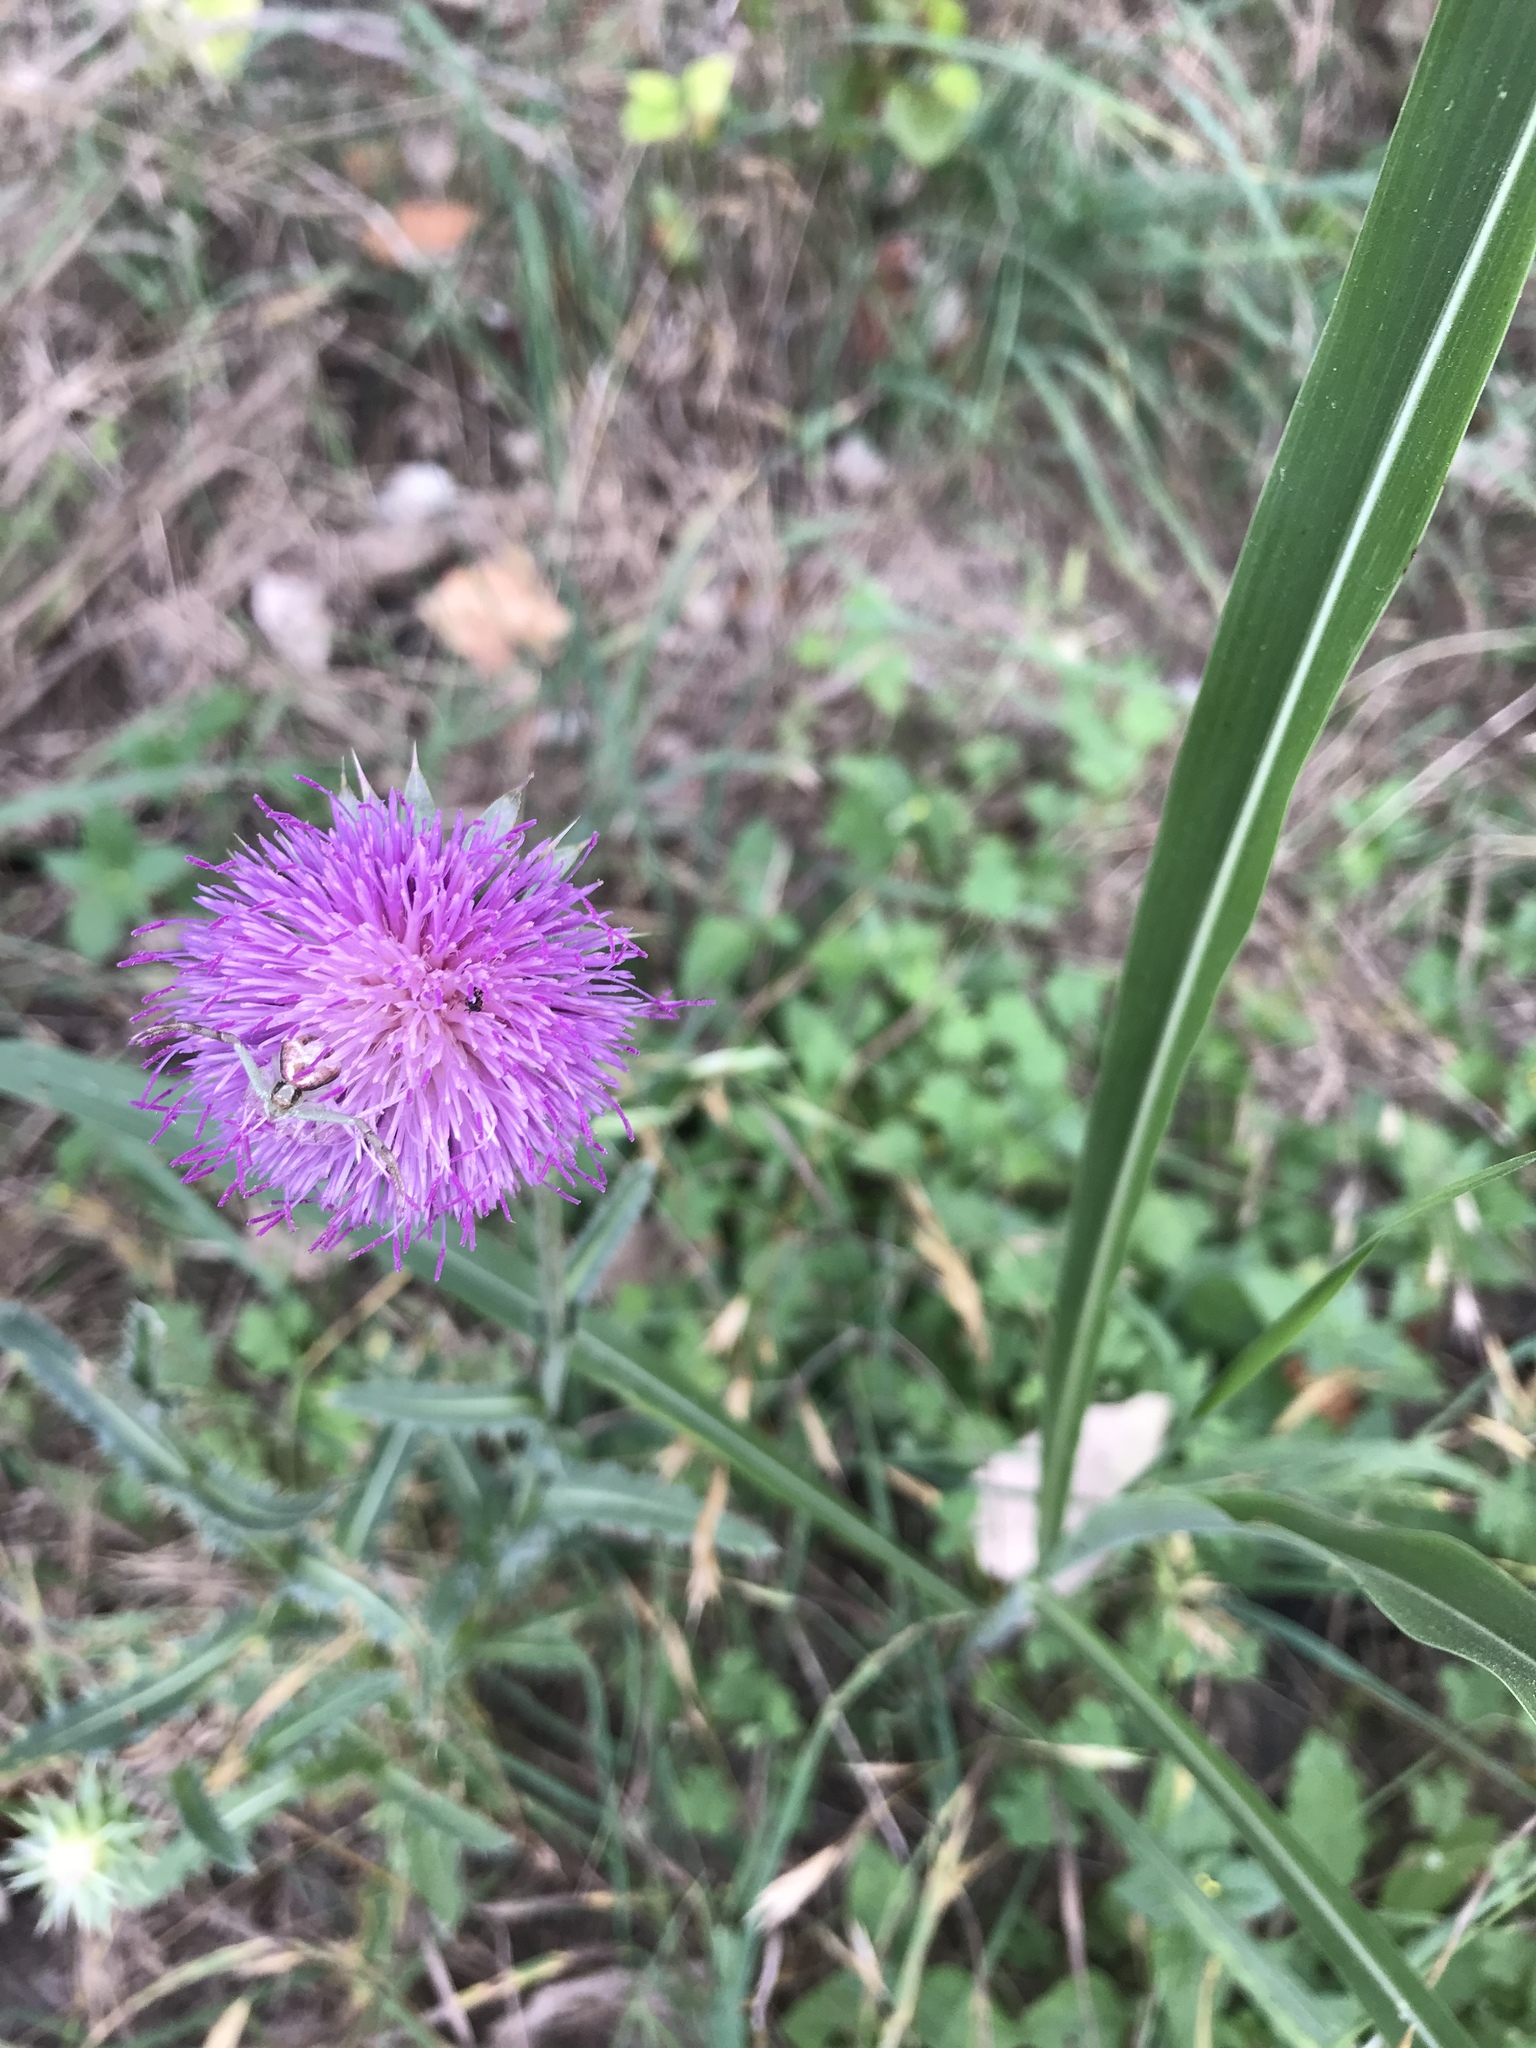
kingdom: Plantae
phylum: Tracheophyta
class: Magnoliopsida
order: Asterales
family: Asteraceae
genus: Carduus
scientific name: Carduus nutans
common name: Musk thistle
